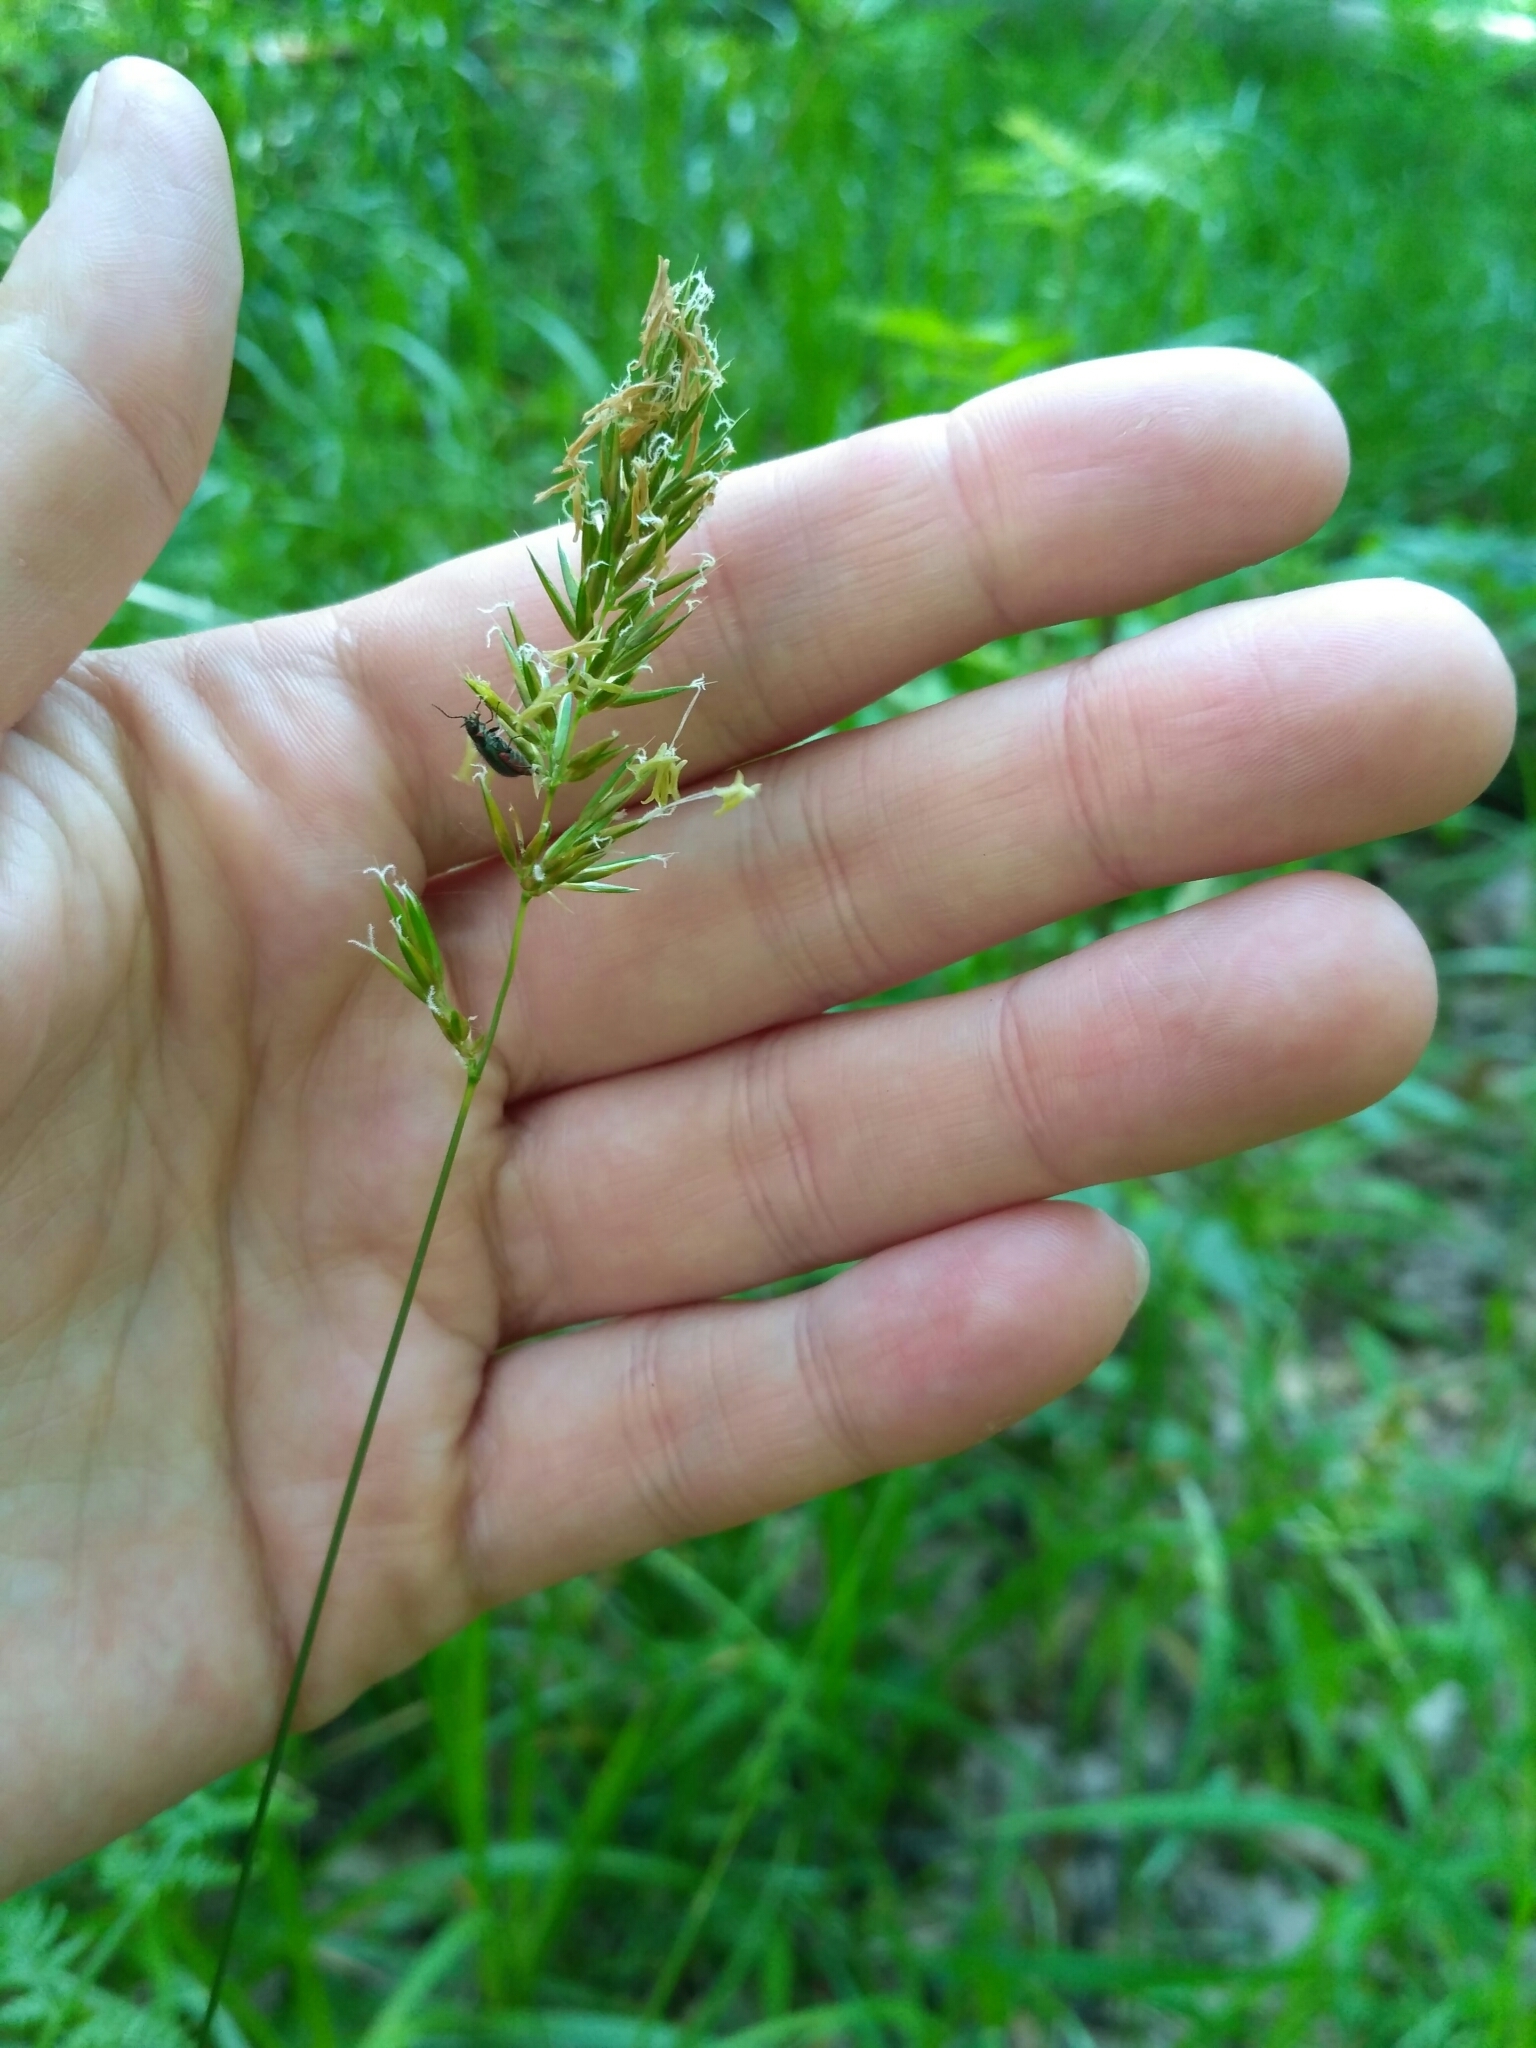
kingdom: Plantae
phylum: Tracheophyta
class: Liliopsida
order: Poales
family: Poaceae
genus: Anthoxanthum
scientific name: Anthoxanthum odoratum
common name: Sweet vernalgrass
